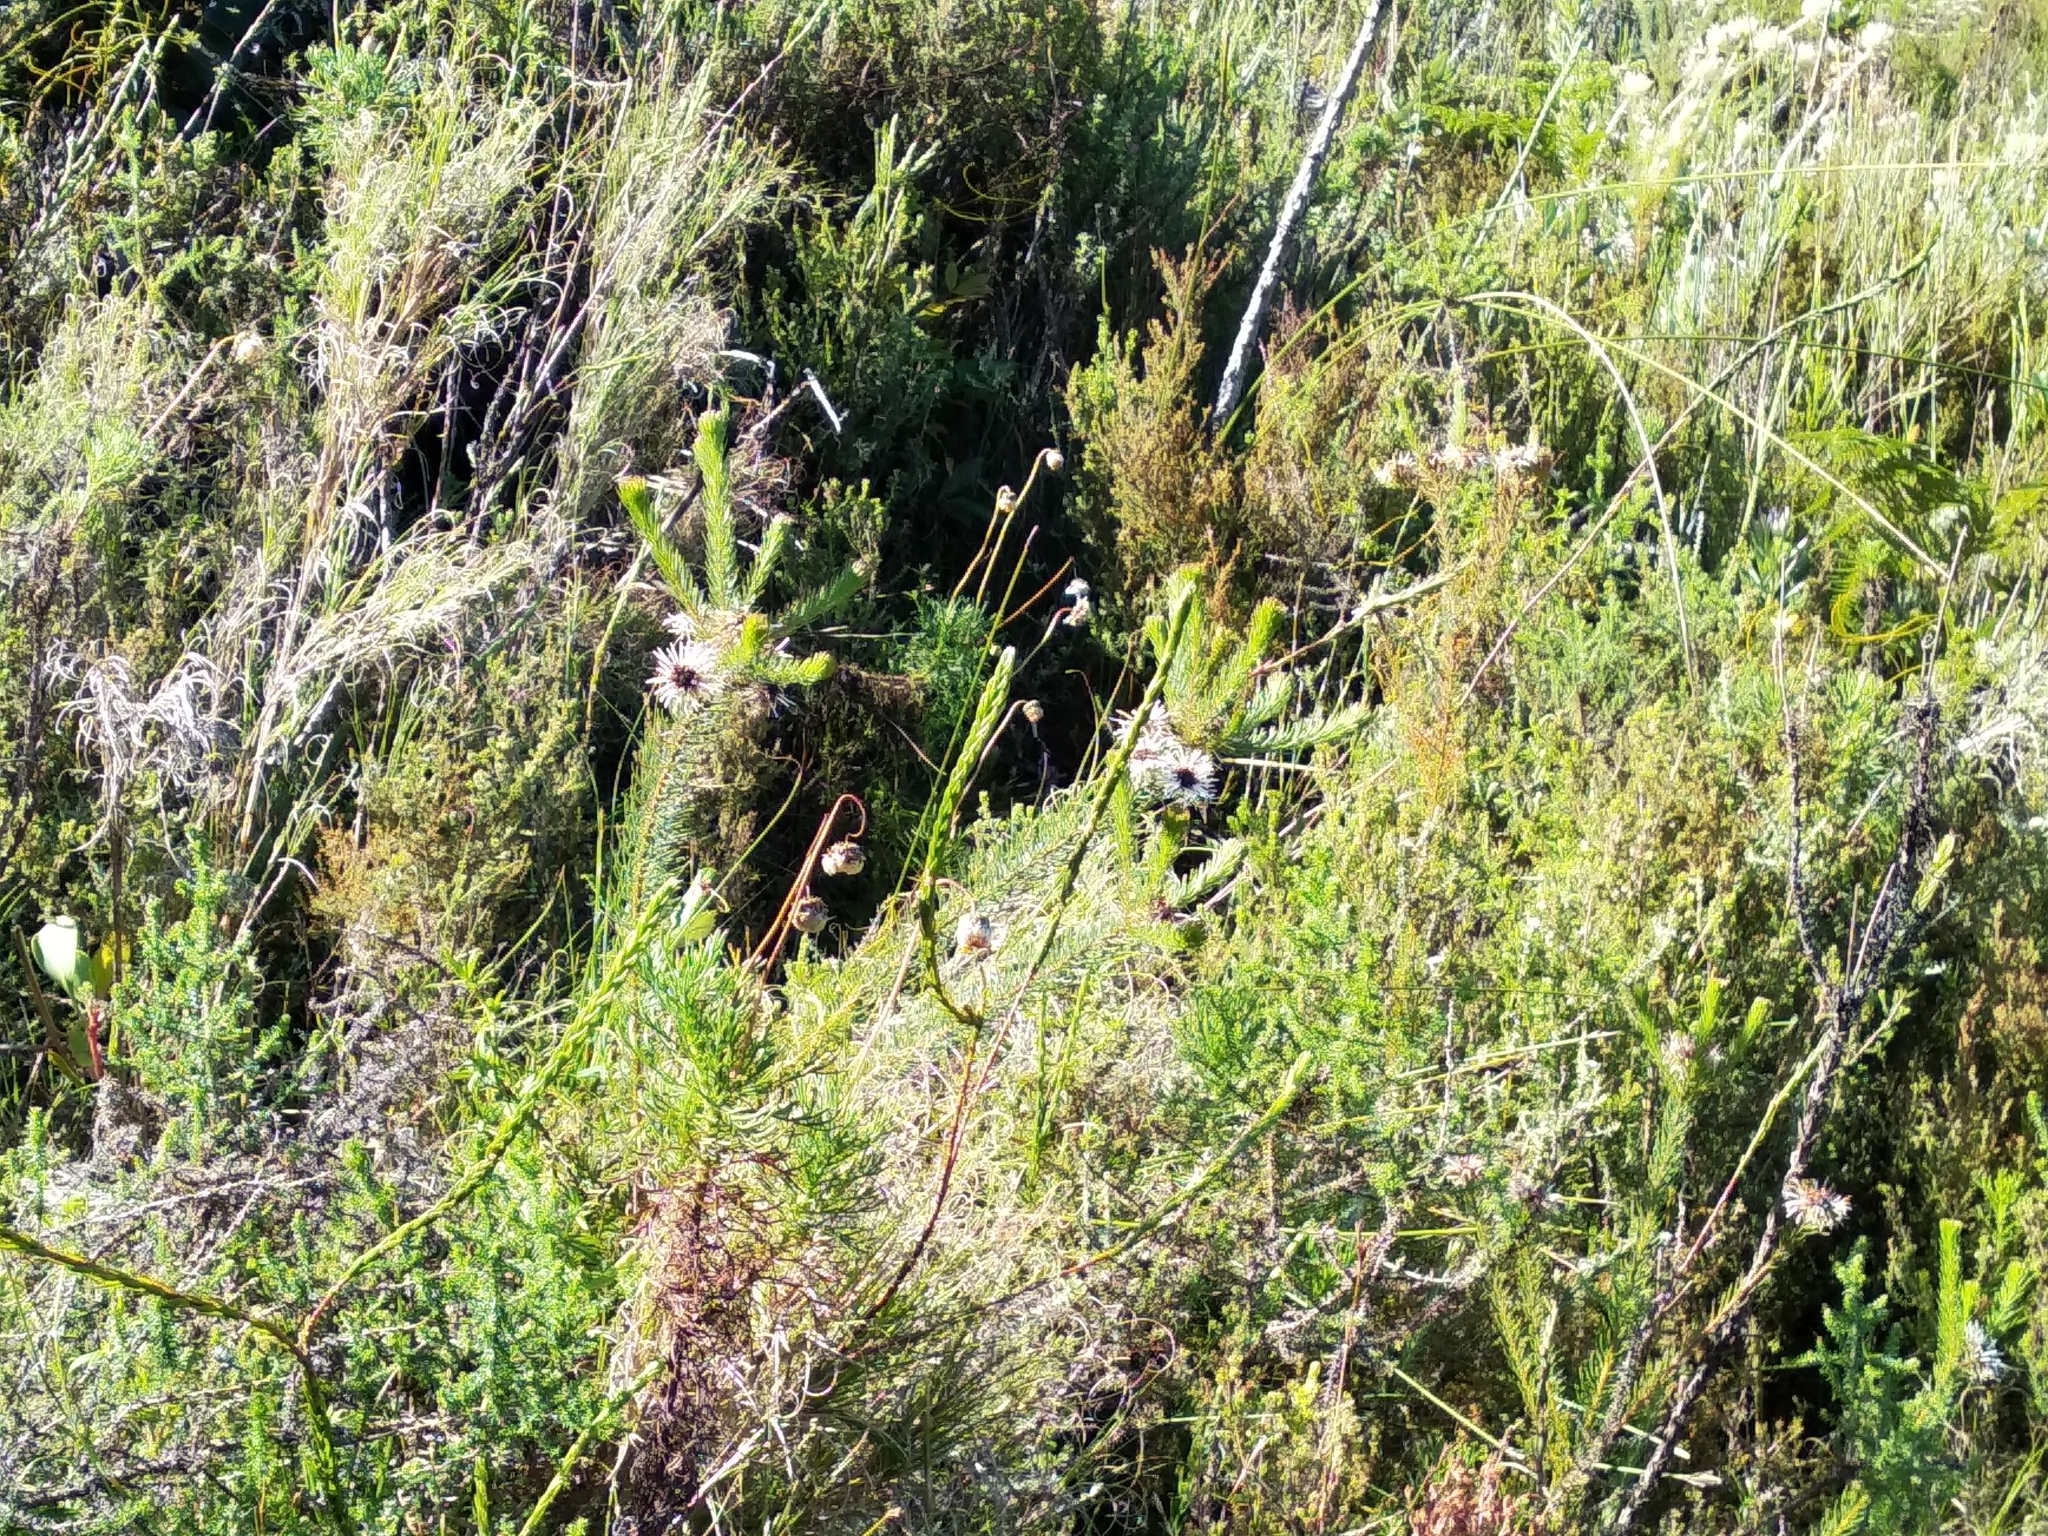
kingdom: Plantae
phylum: Tracheophyta
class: Magnoliopsida
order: Bruniales
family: Bruniaceae
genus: Staavia
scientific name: Staavia glutinosa
